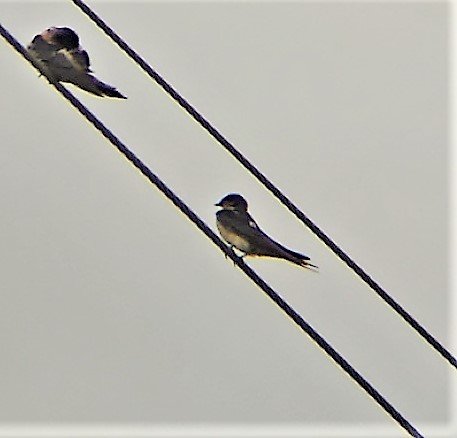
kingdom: Animalia
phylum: Chordata
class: Aves
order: Passeriformes
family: Hirundinidae
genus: Hirundo
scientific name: Hirundo rustica
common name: Barn swallow
